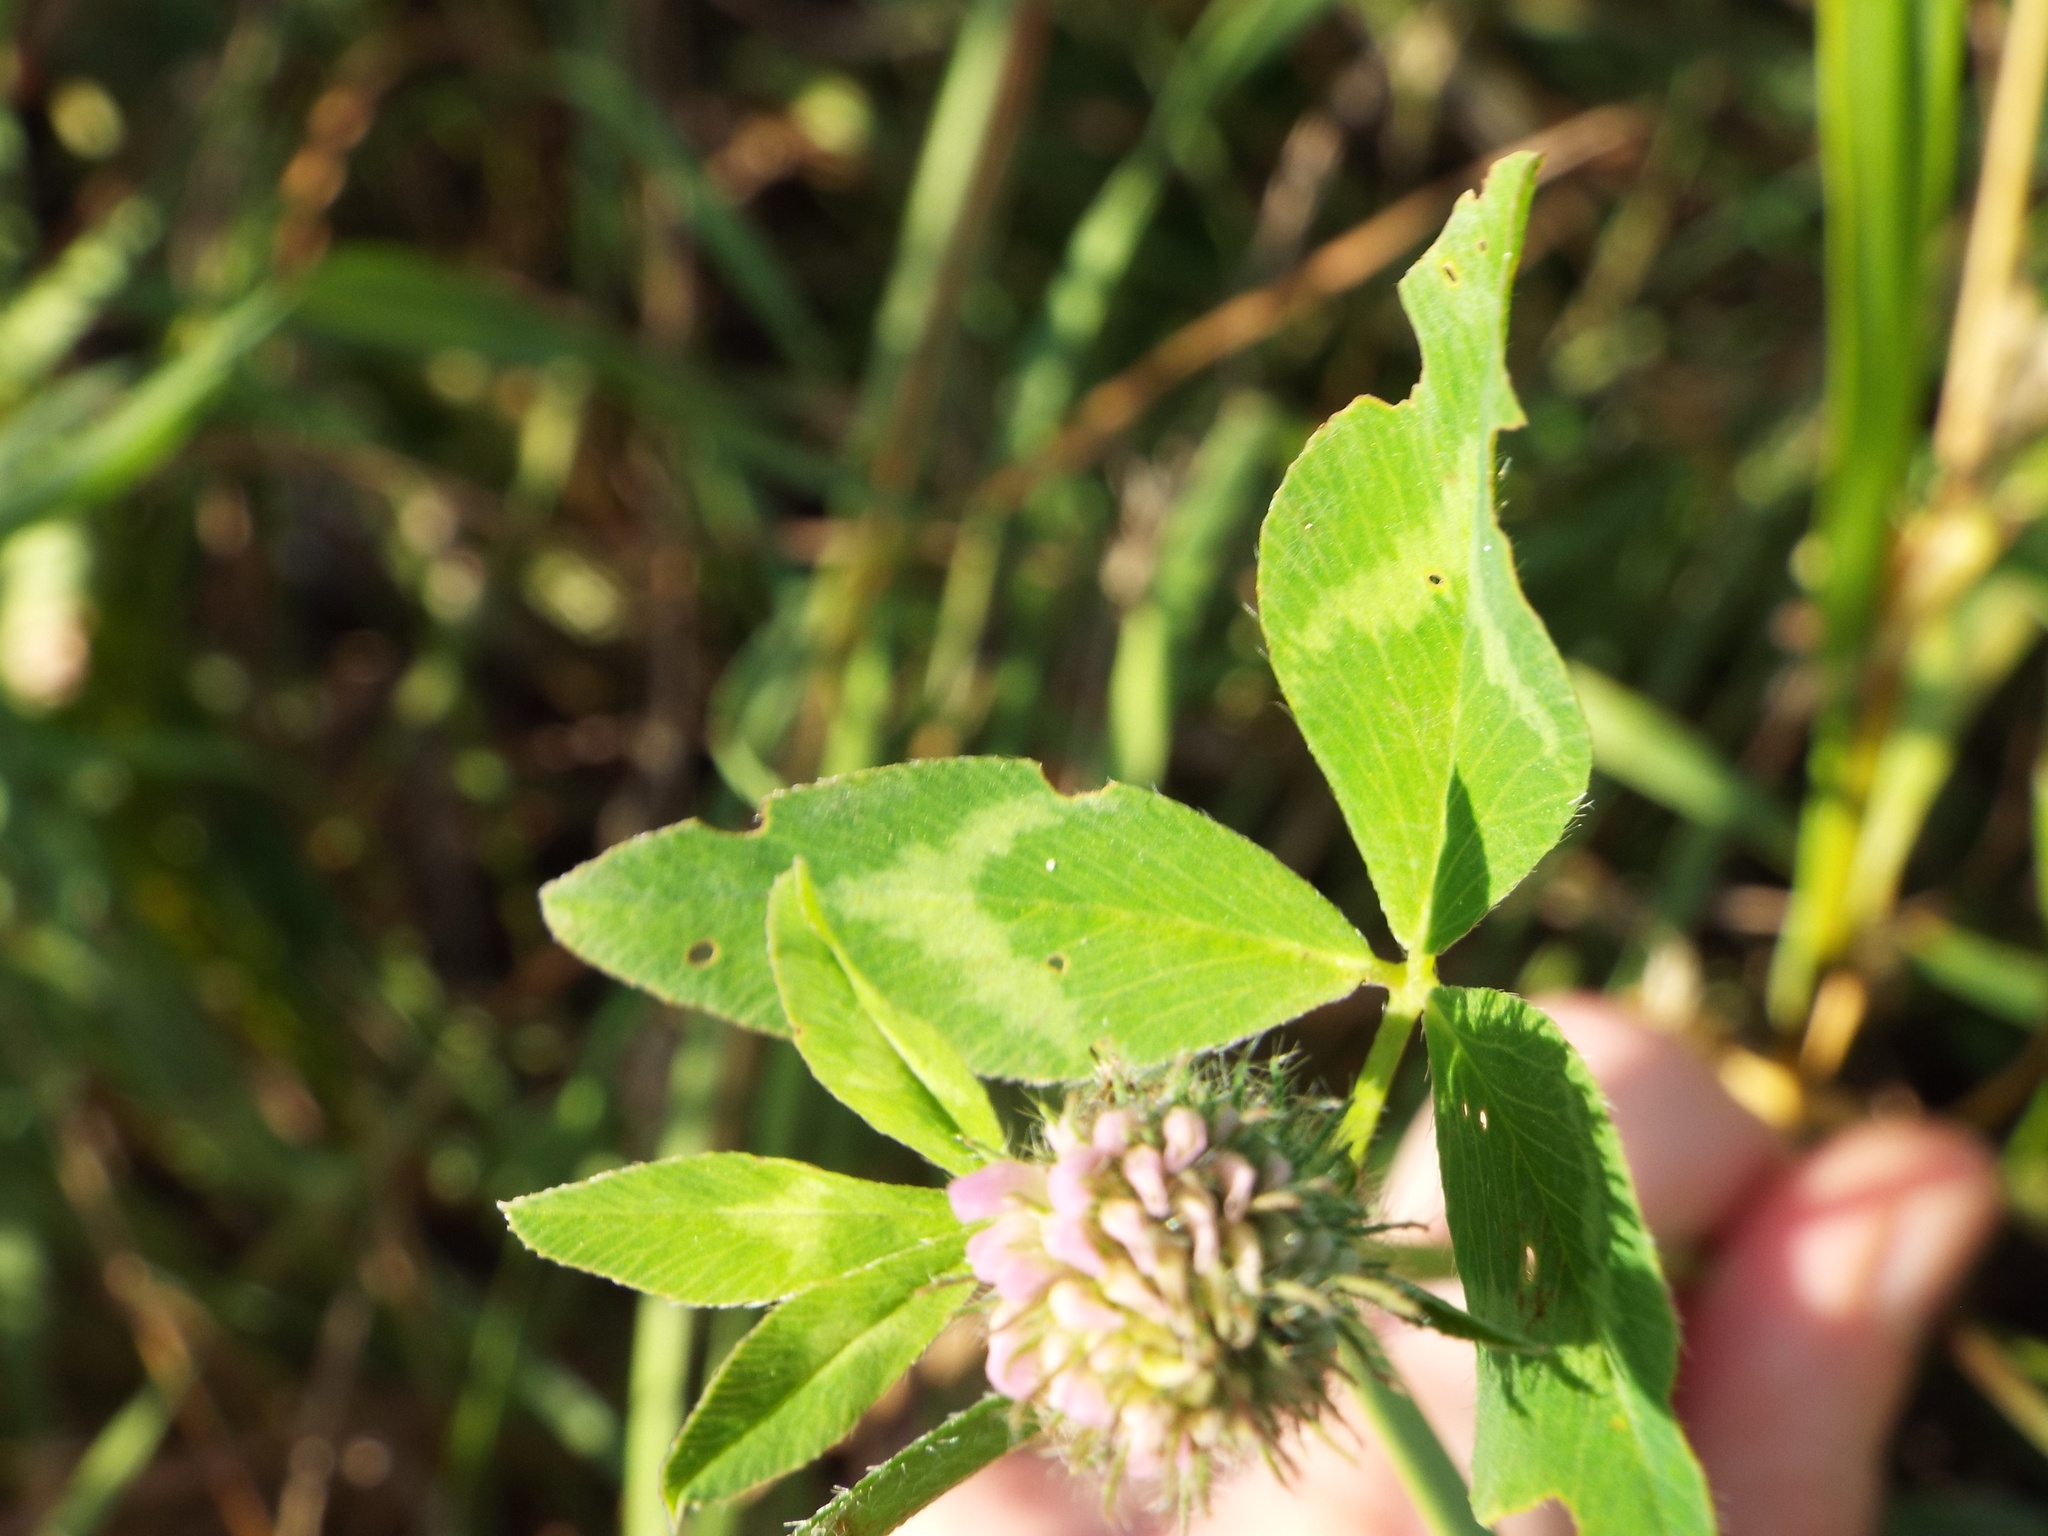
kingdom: Plantae
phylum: Tracheophyta
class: Magnoliopsida
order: Fabales
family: Fabaceae
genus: Trifolium
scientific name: Trifolium pratense
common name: Red clover
